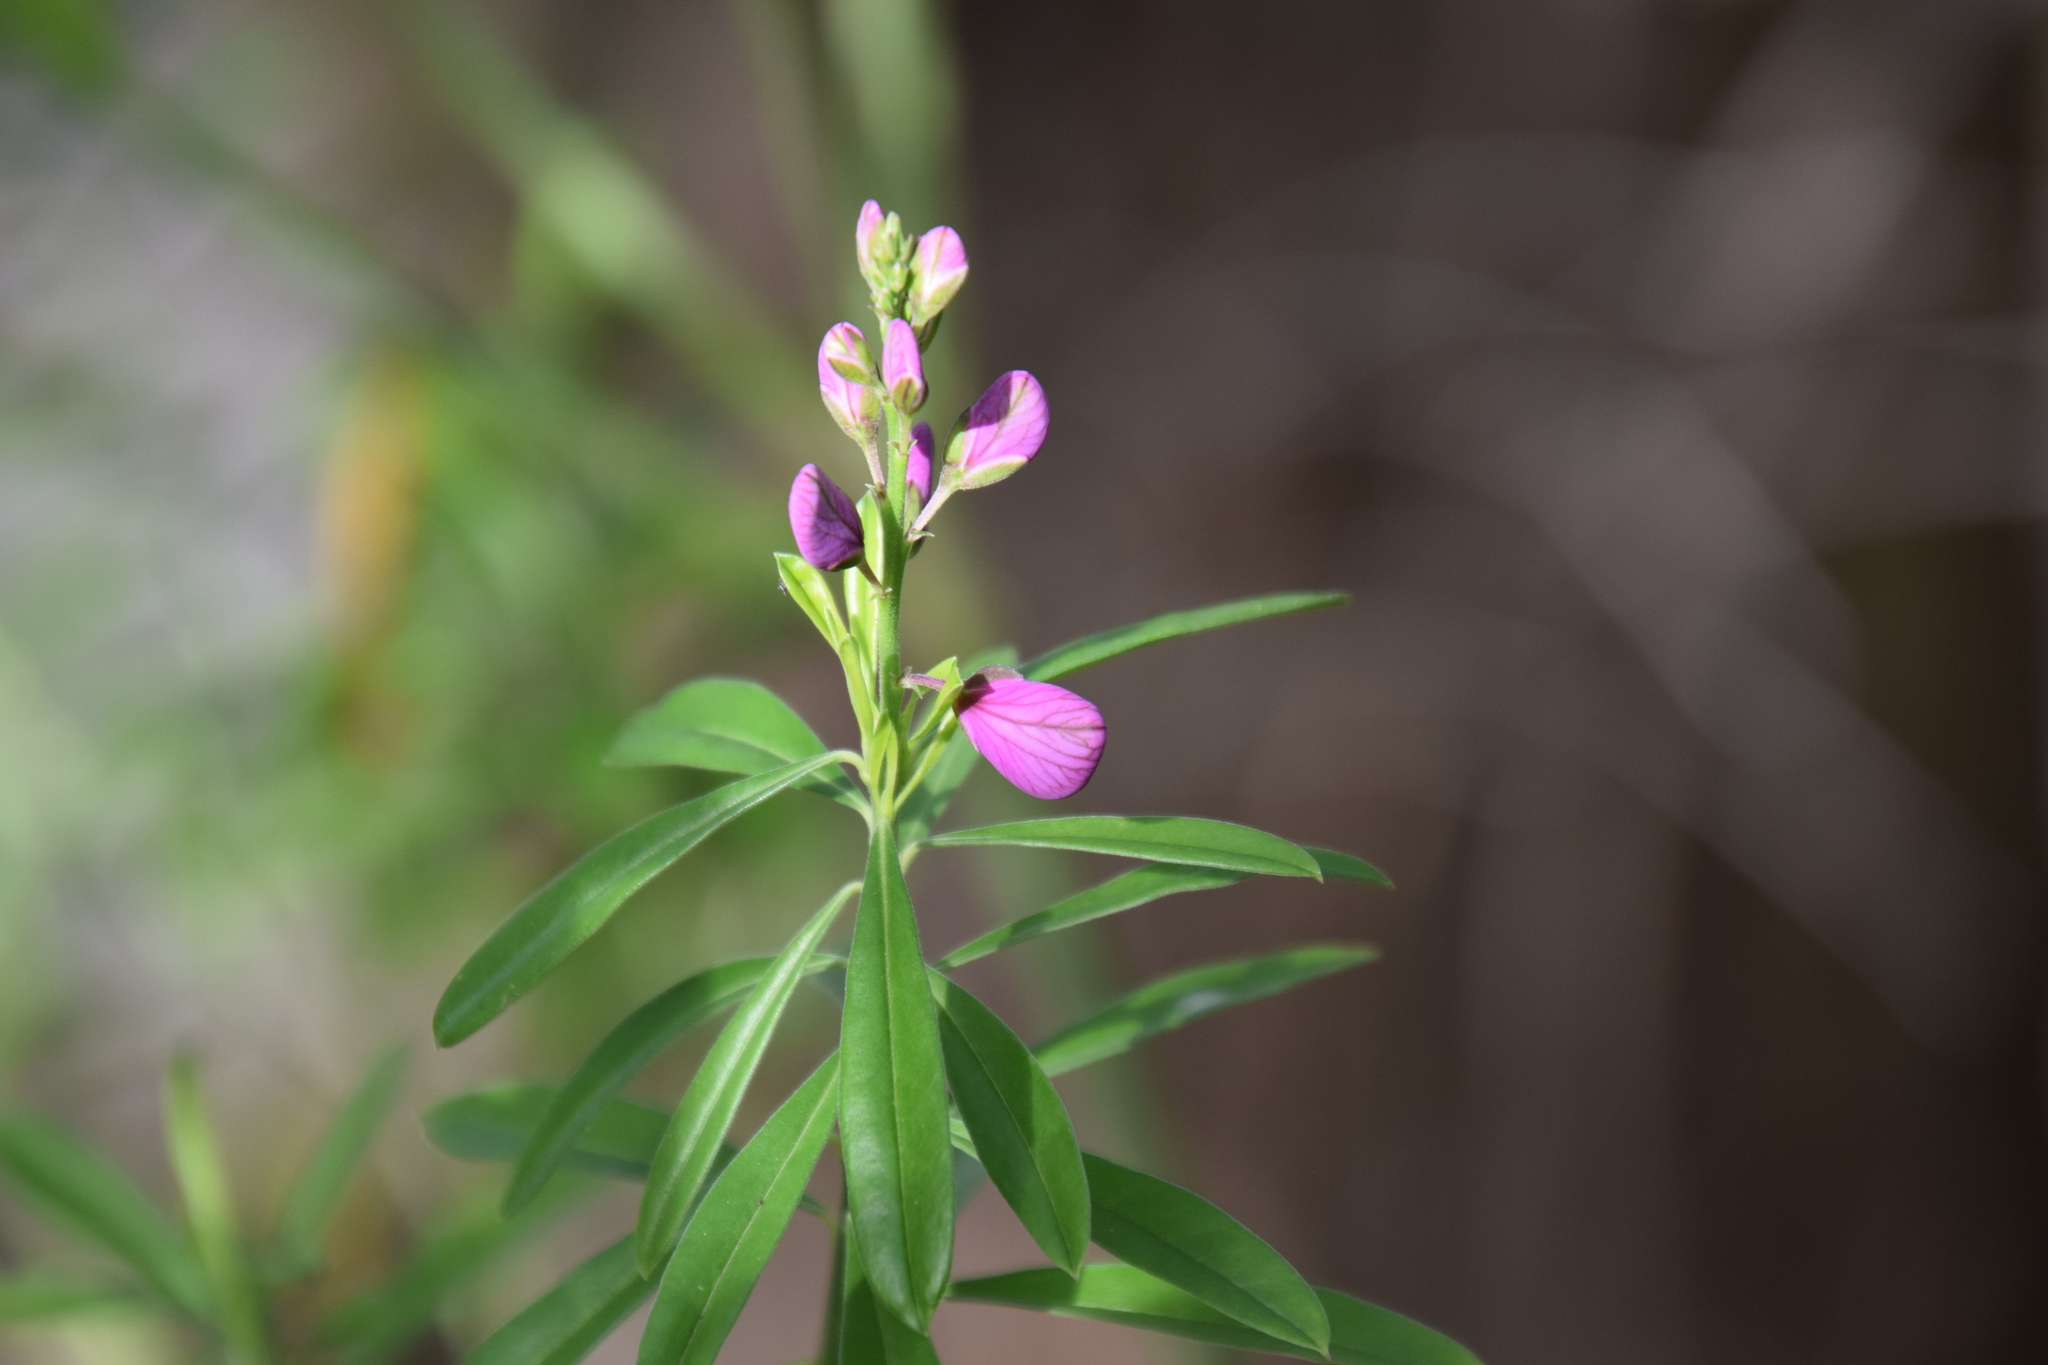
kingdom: Plantae
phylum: Tracheophyta
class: Magnoliopsida
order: Fabales
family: Polygalaceae
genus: Polygala
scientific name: Polygala virgata
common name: Milkwort
